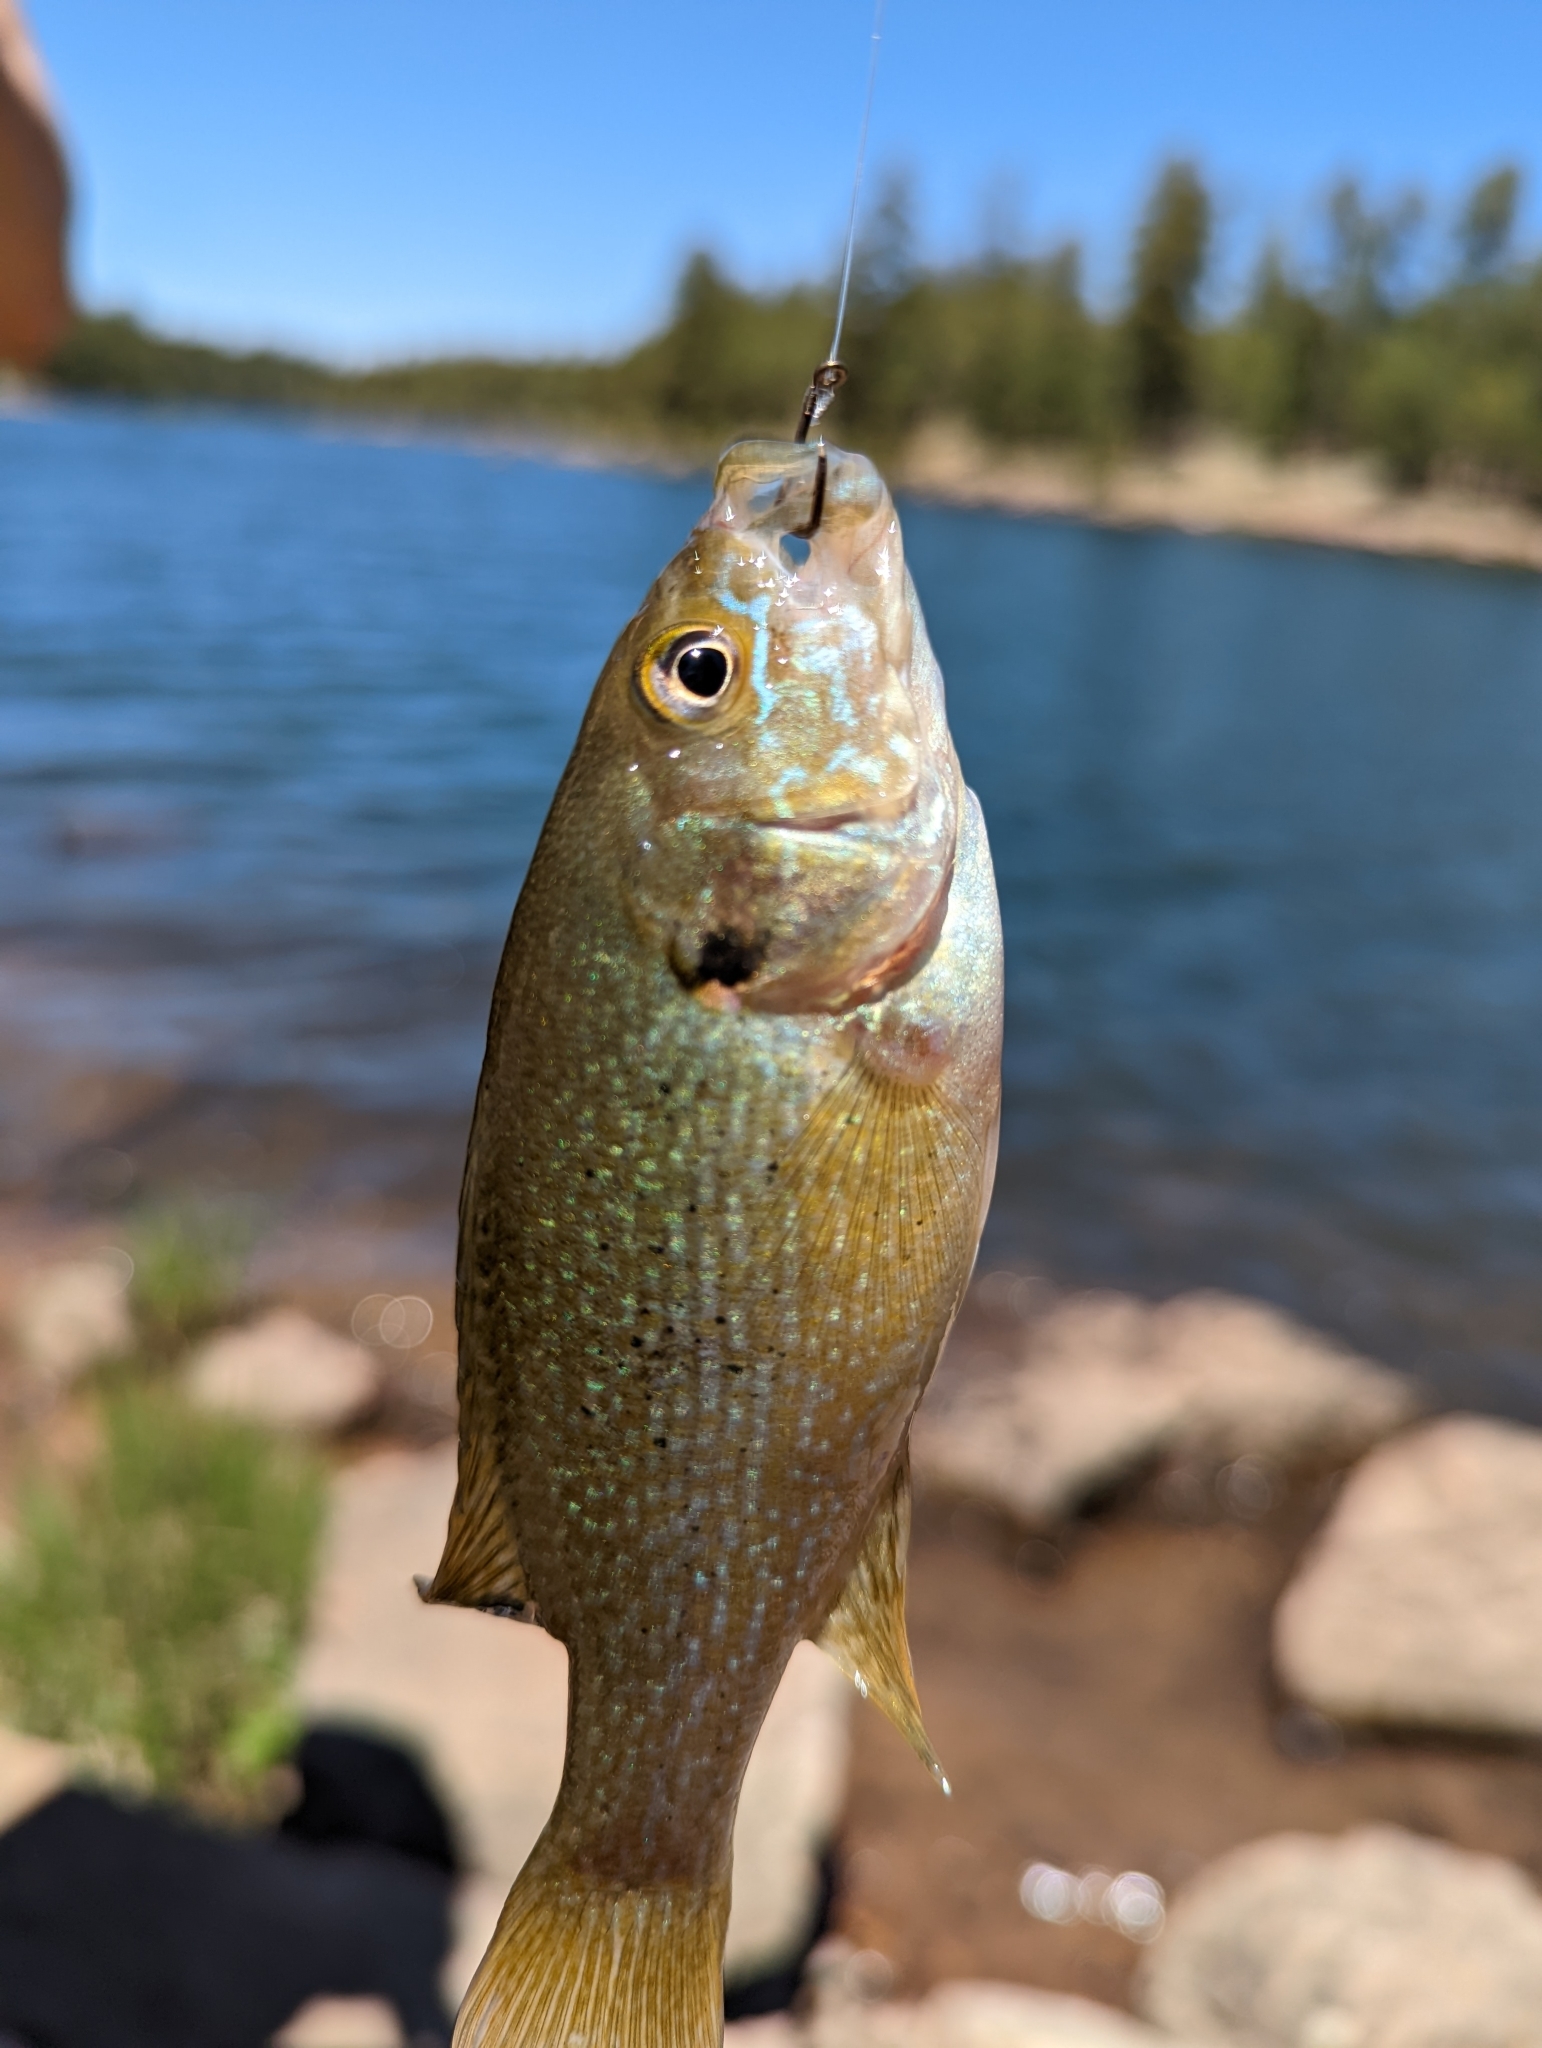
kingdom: Animalia
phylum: Chordata
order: Perciformes
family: Centrarchidae
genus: Lepomis
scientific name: Lepomis cyanellus
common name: Green sunfish
